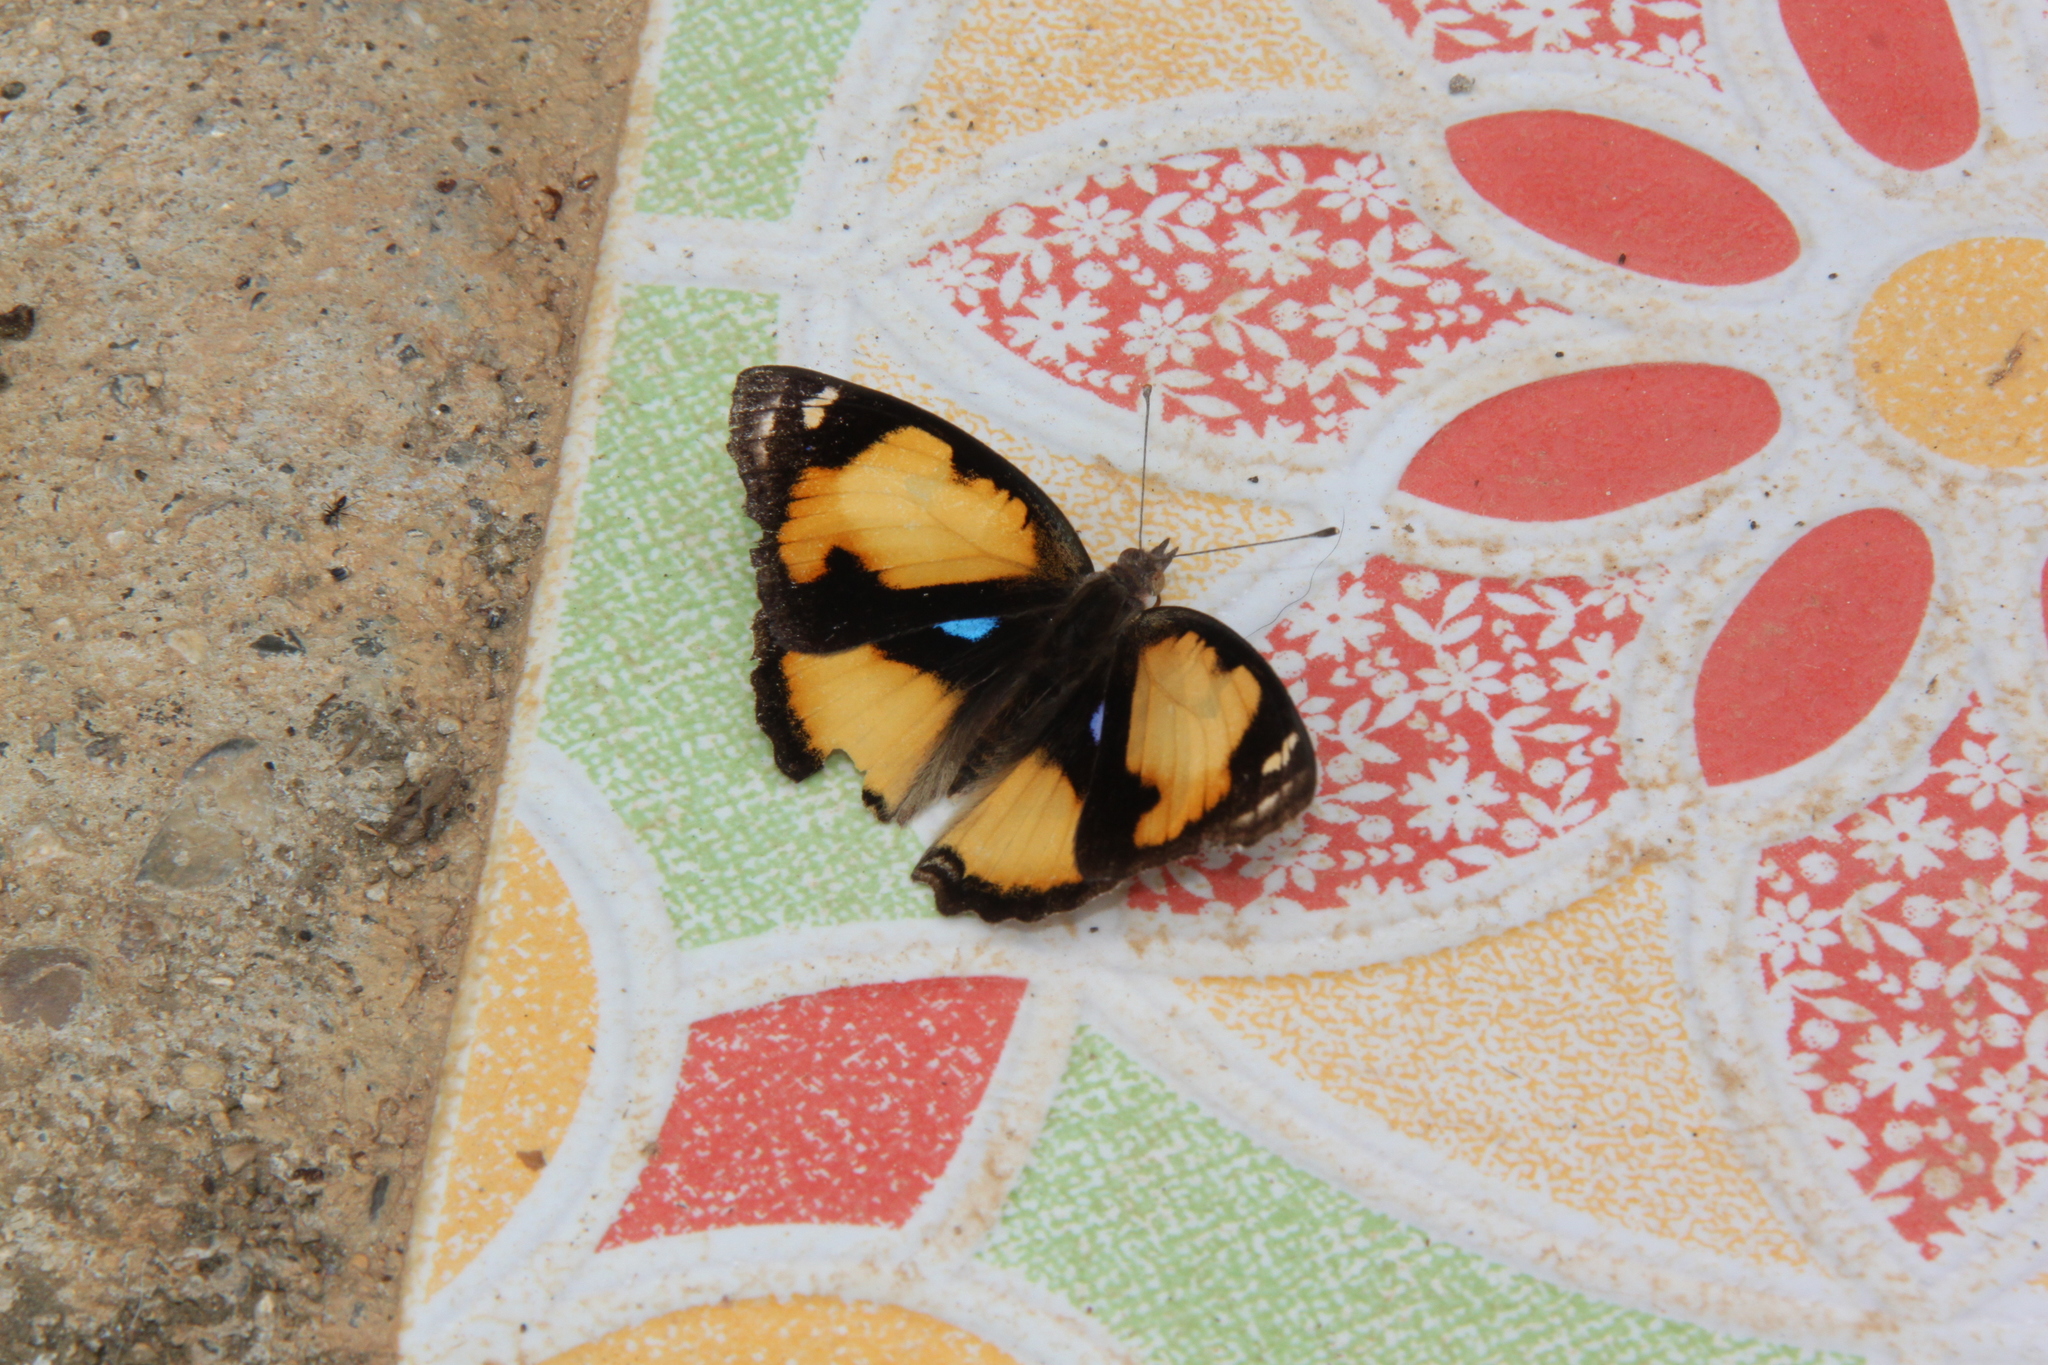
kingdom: Animalia
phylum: Arthropoda
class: Insecta
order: Lepidoptera
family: Nymphalidae
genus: Junonia
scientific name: Junonia hierta
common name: Yellow pansy
